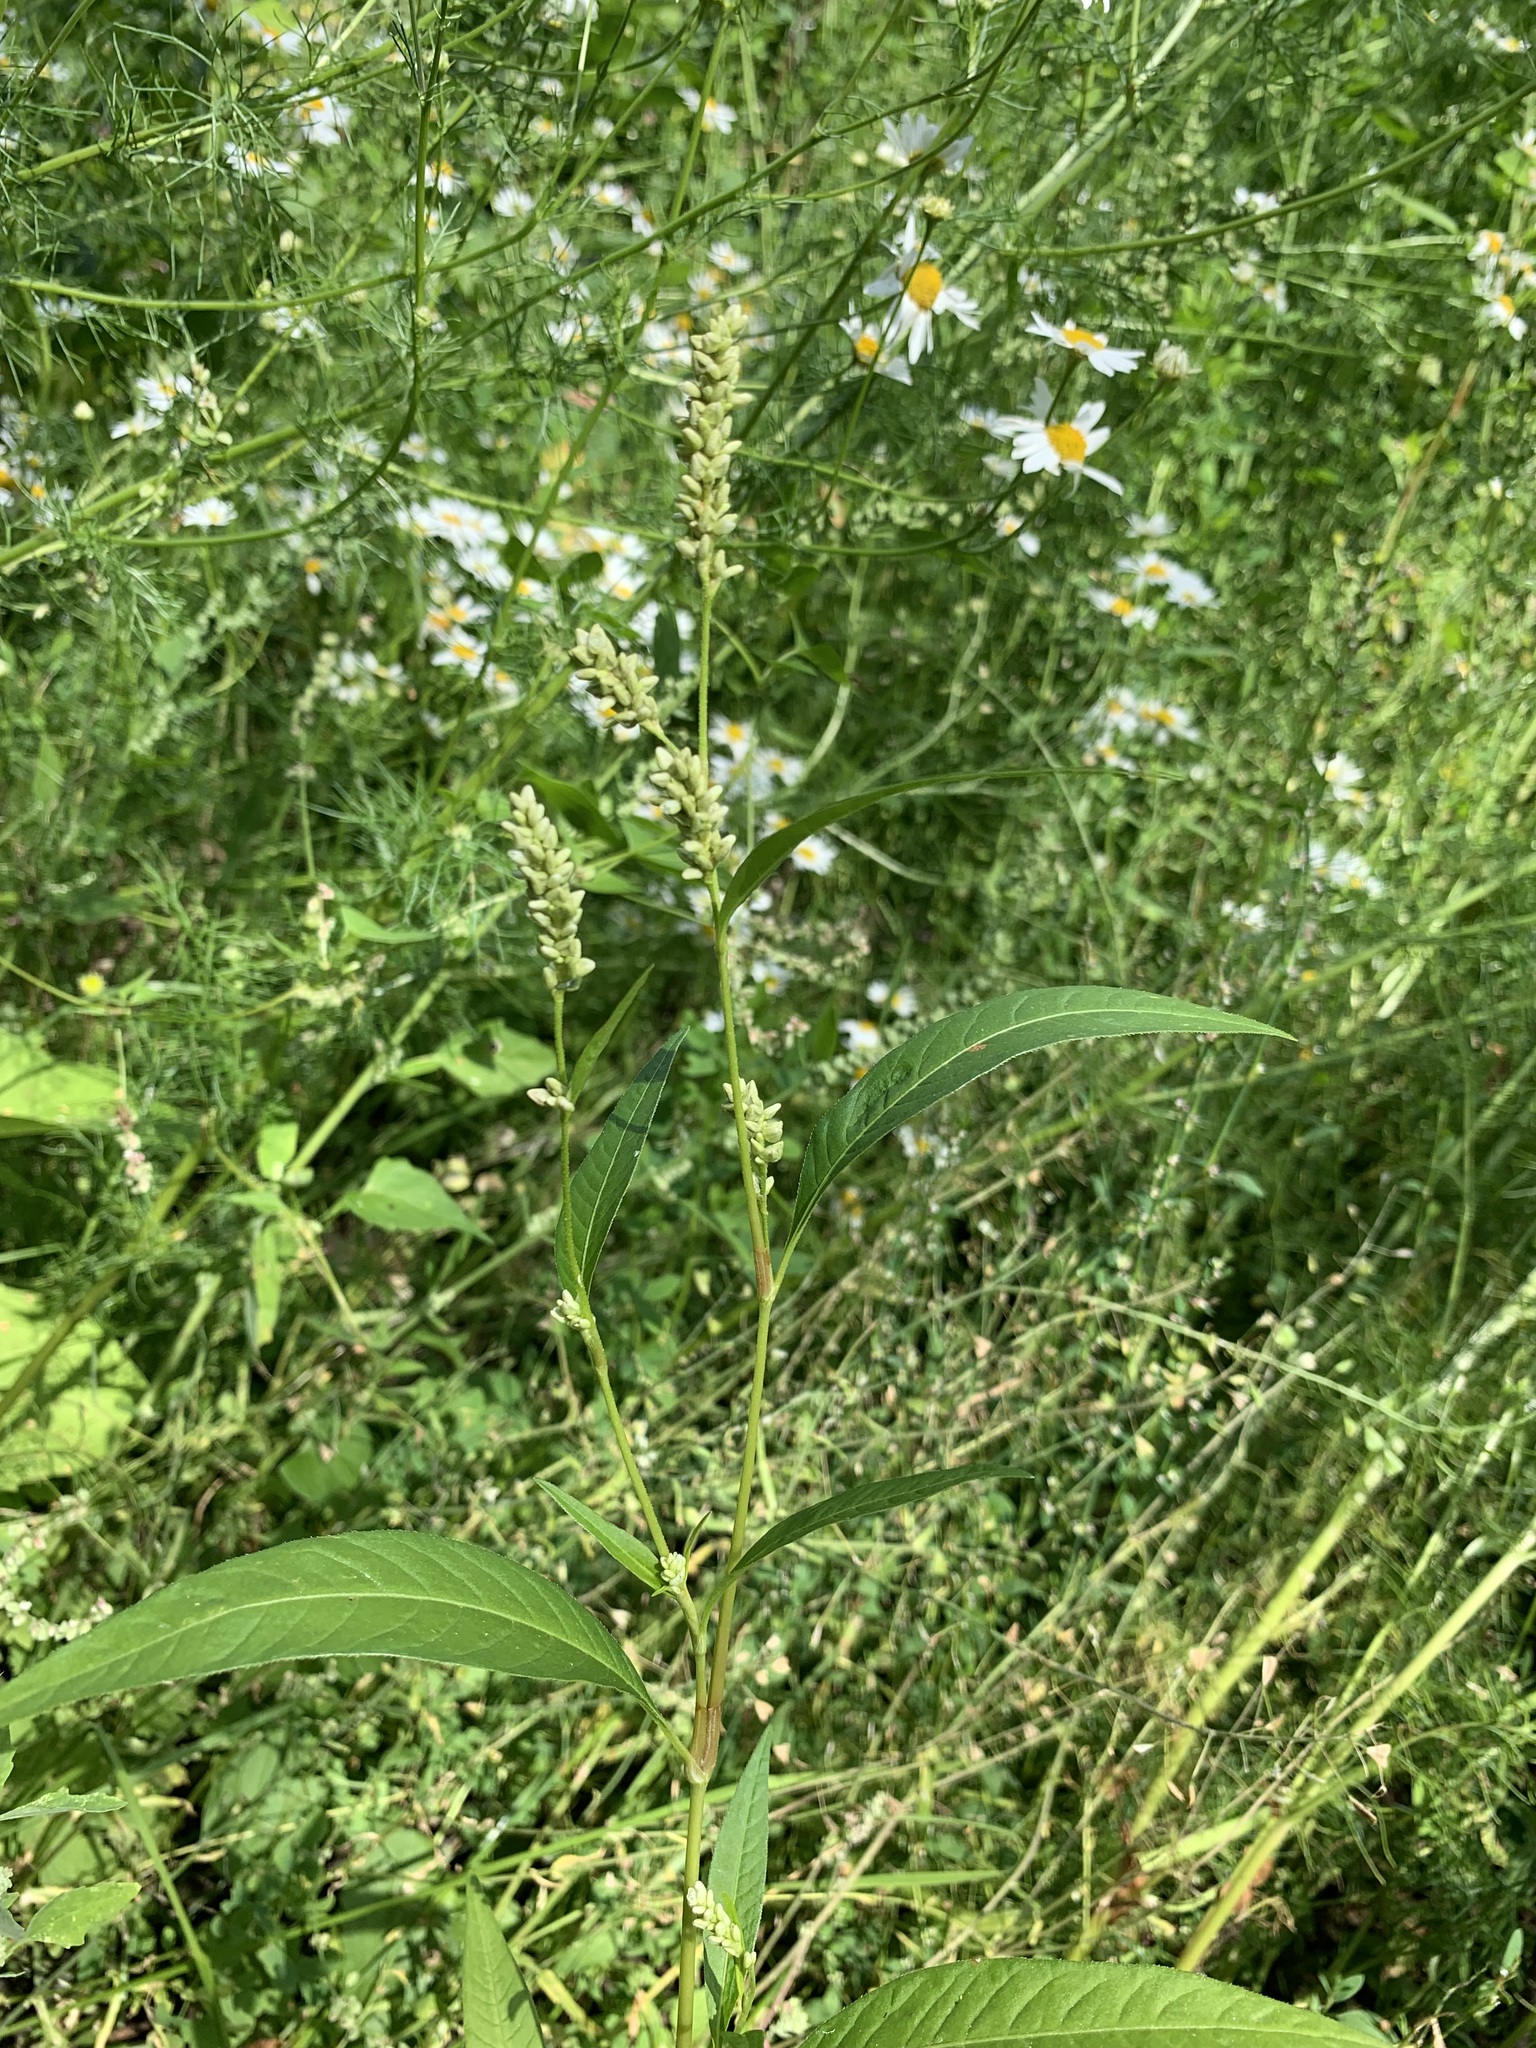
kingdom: Plantae
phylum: Tracheophyta
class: Magnoliopsida
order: Caryophyllales
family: Polygonaceae
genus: Persicaria
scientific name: Persicaria
